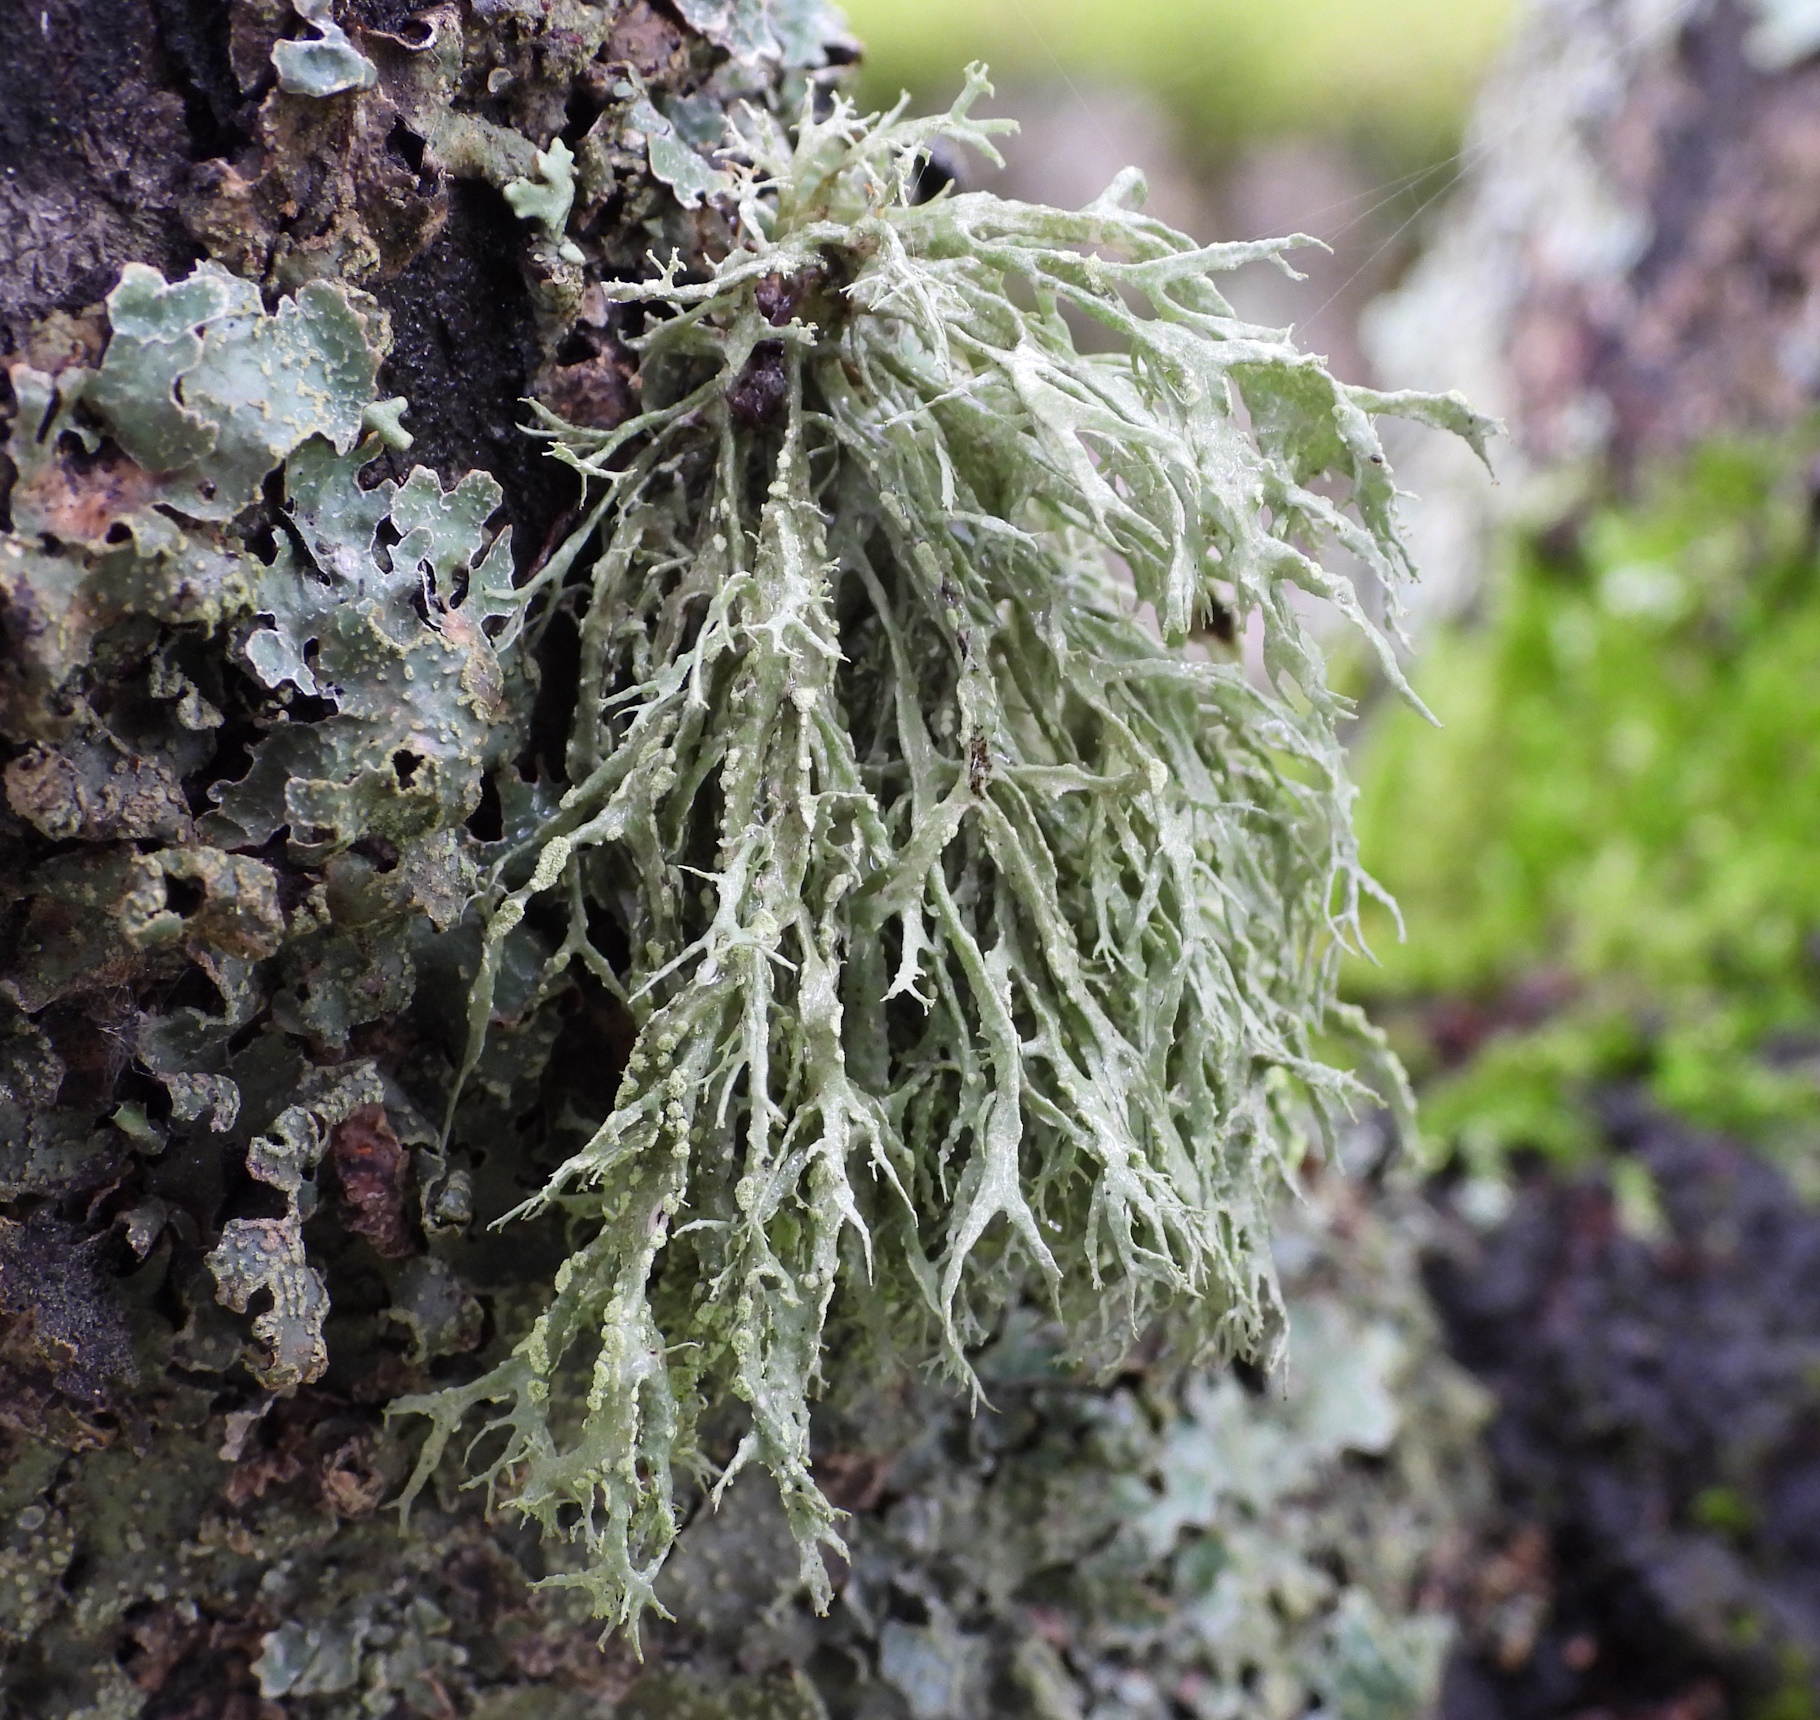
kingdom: Fungi
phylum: Ascomycota
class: Lecanoromycetes
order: Lecanorales
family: Ramalinaceae
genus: Ramalina
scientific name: Ramalina farinacea
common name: Farinose cartilage lichen
